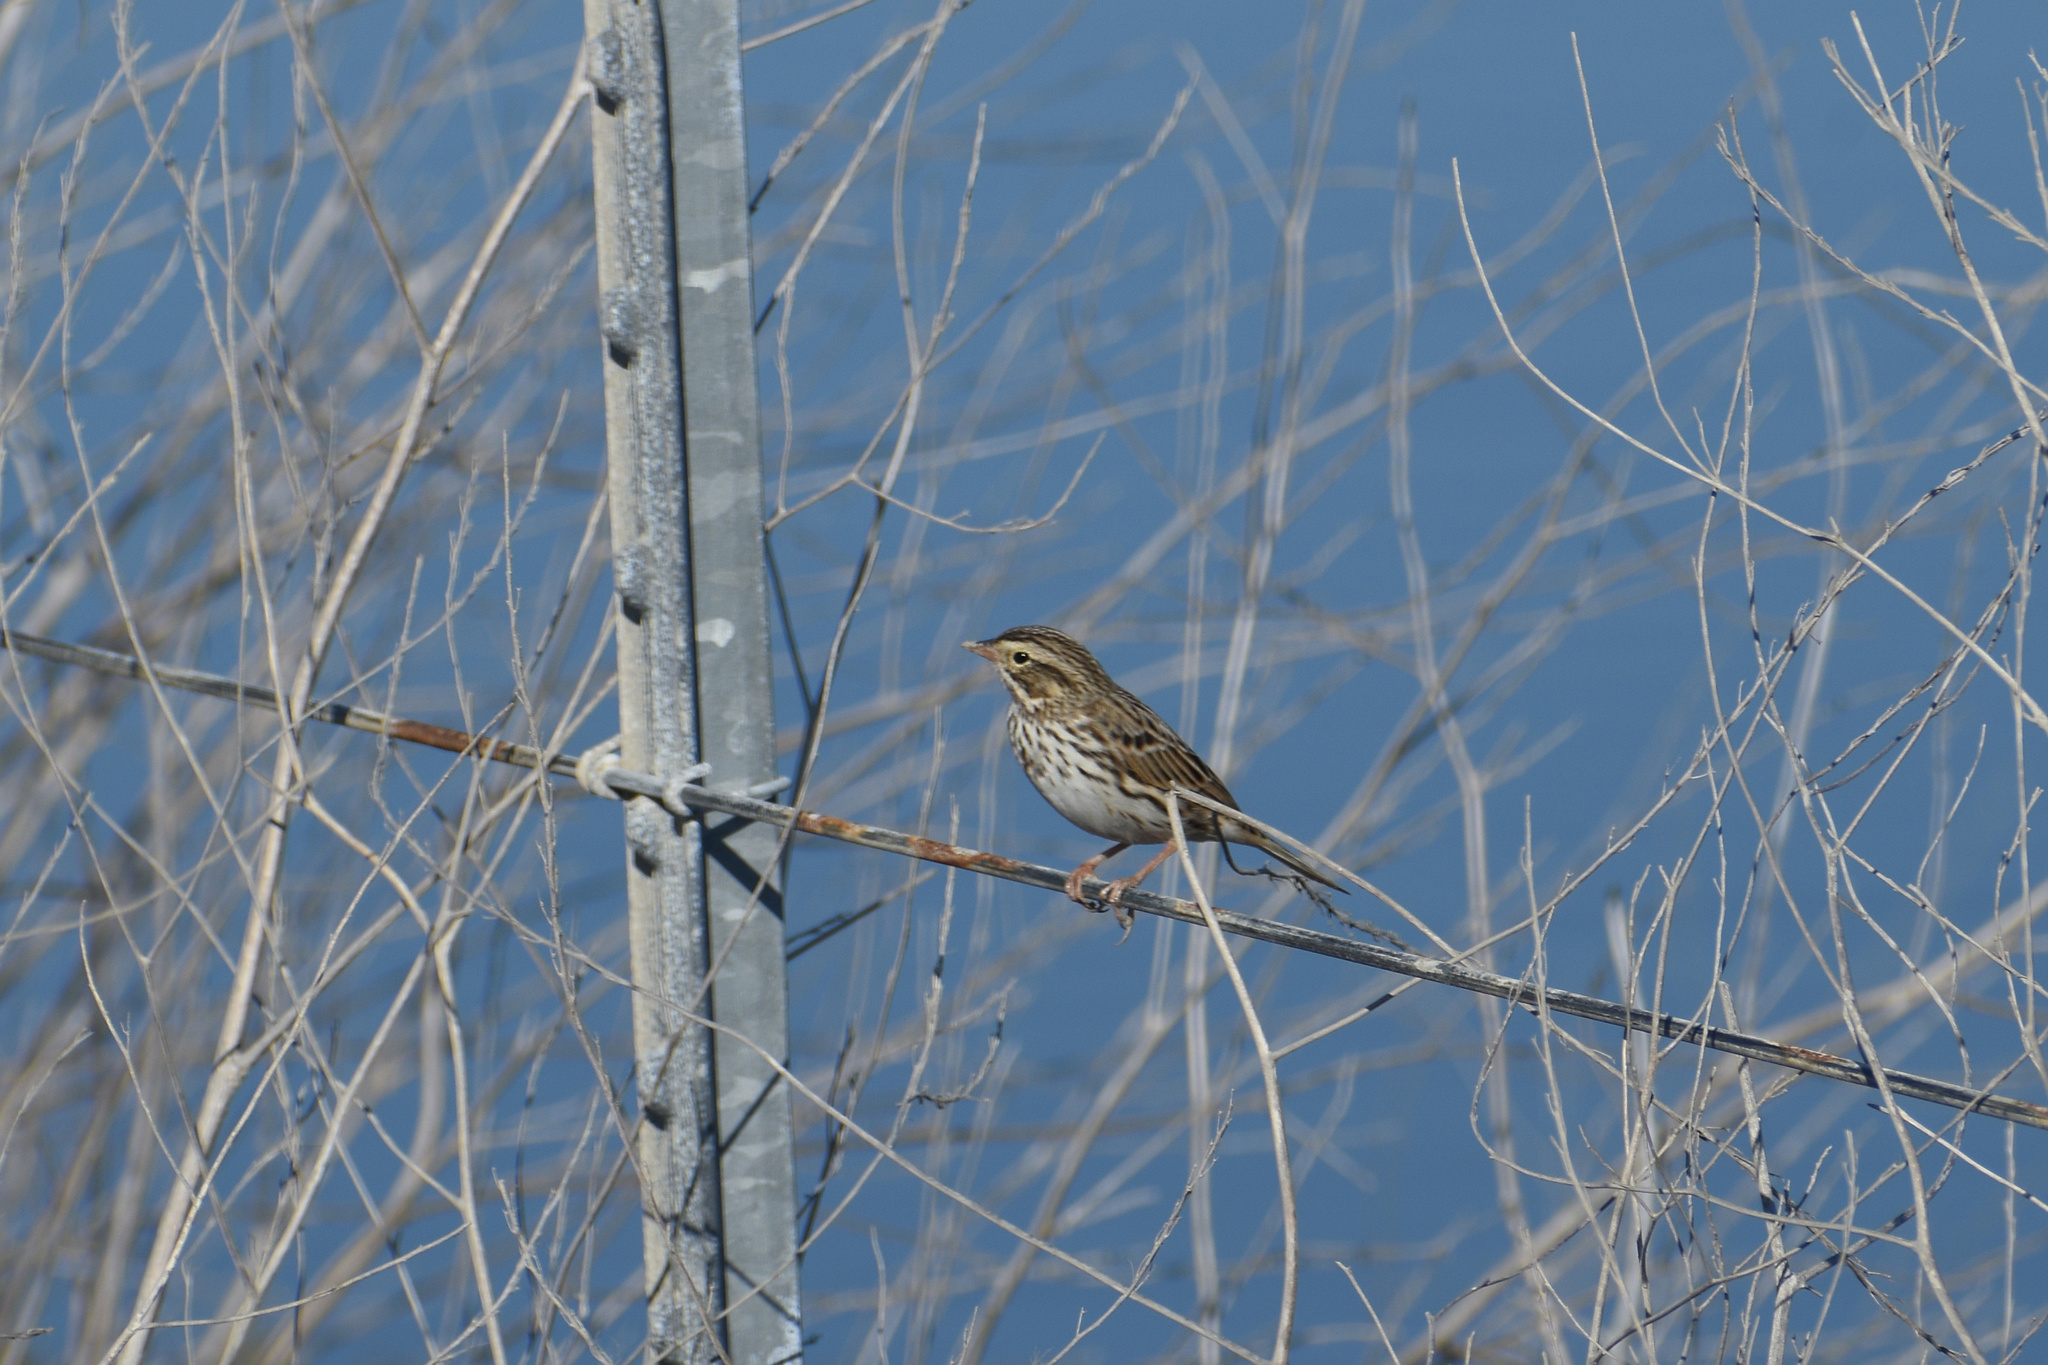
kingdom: Animalia
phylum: Chordata
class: Aves
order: Passeriformes
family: Passerellidae
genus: Passerculus
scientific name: Passerculus sandwichensis
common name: Savannah sparrow
